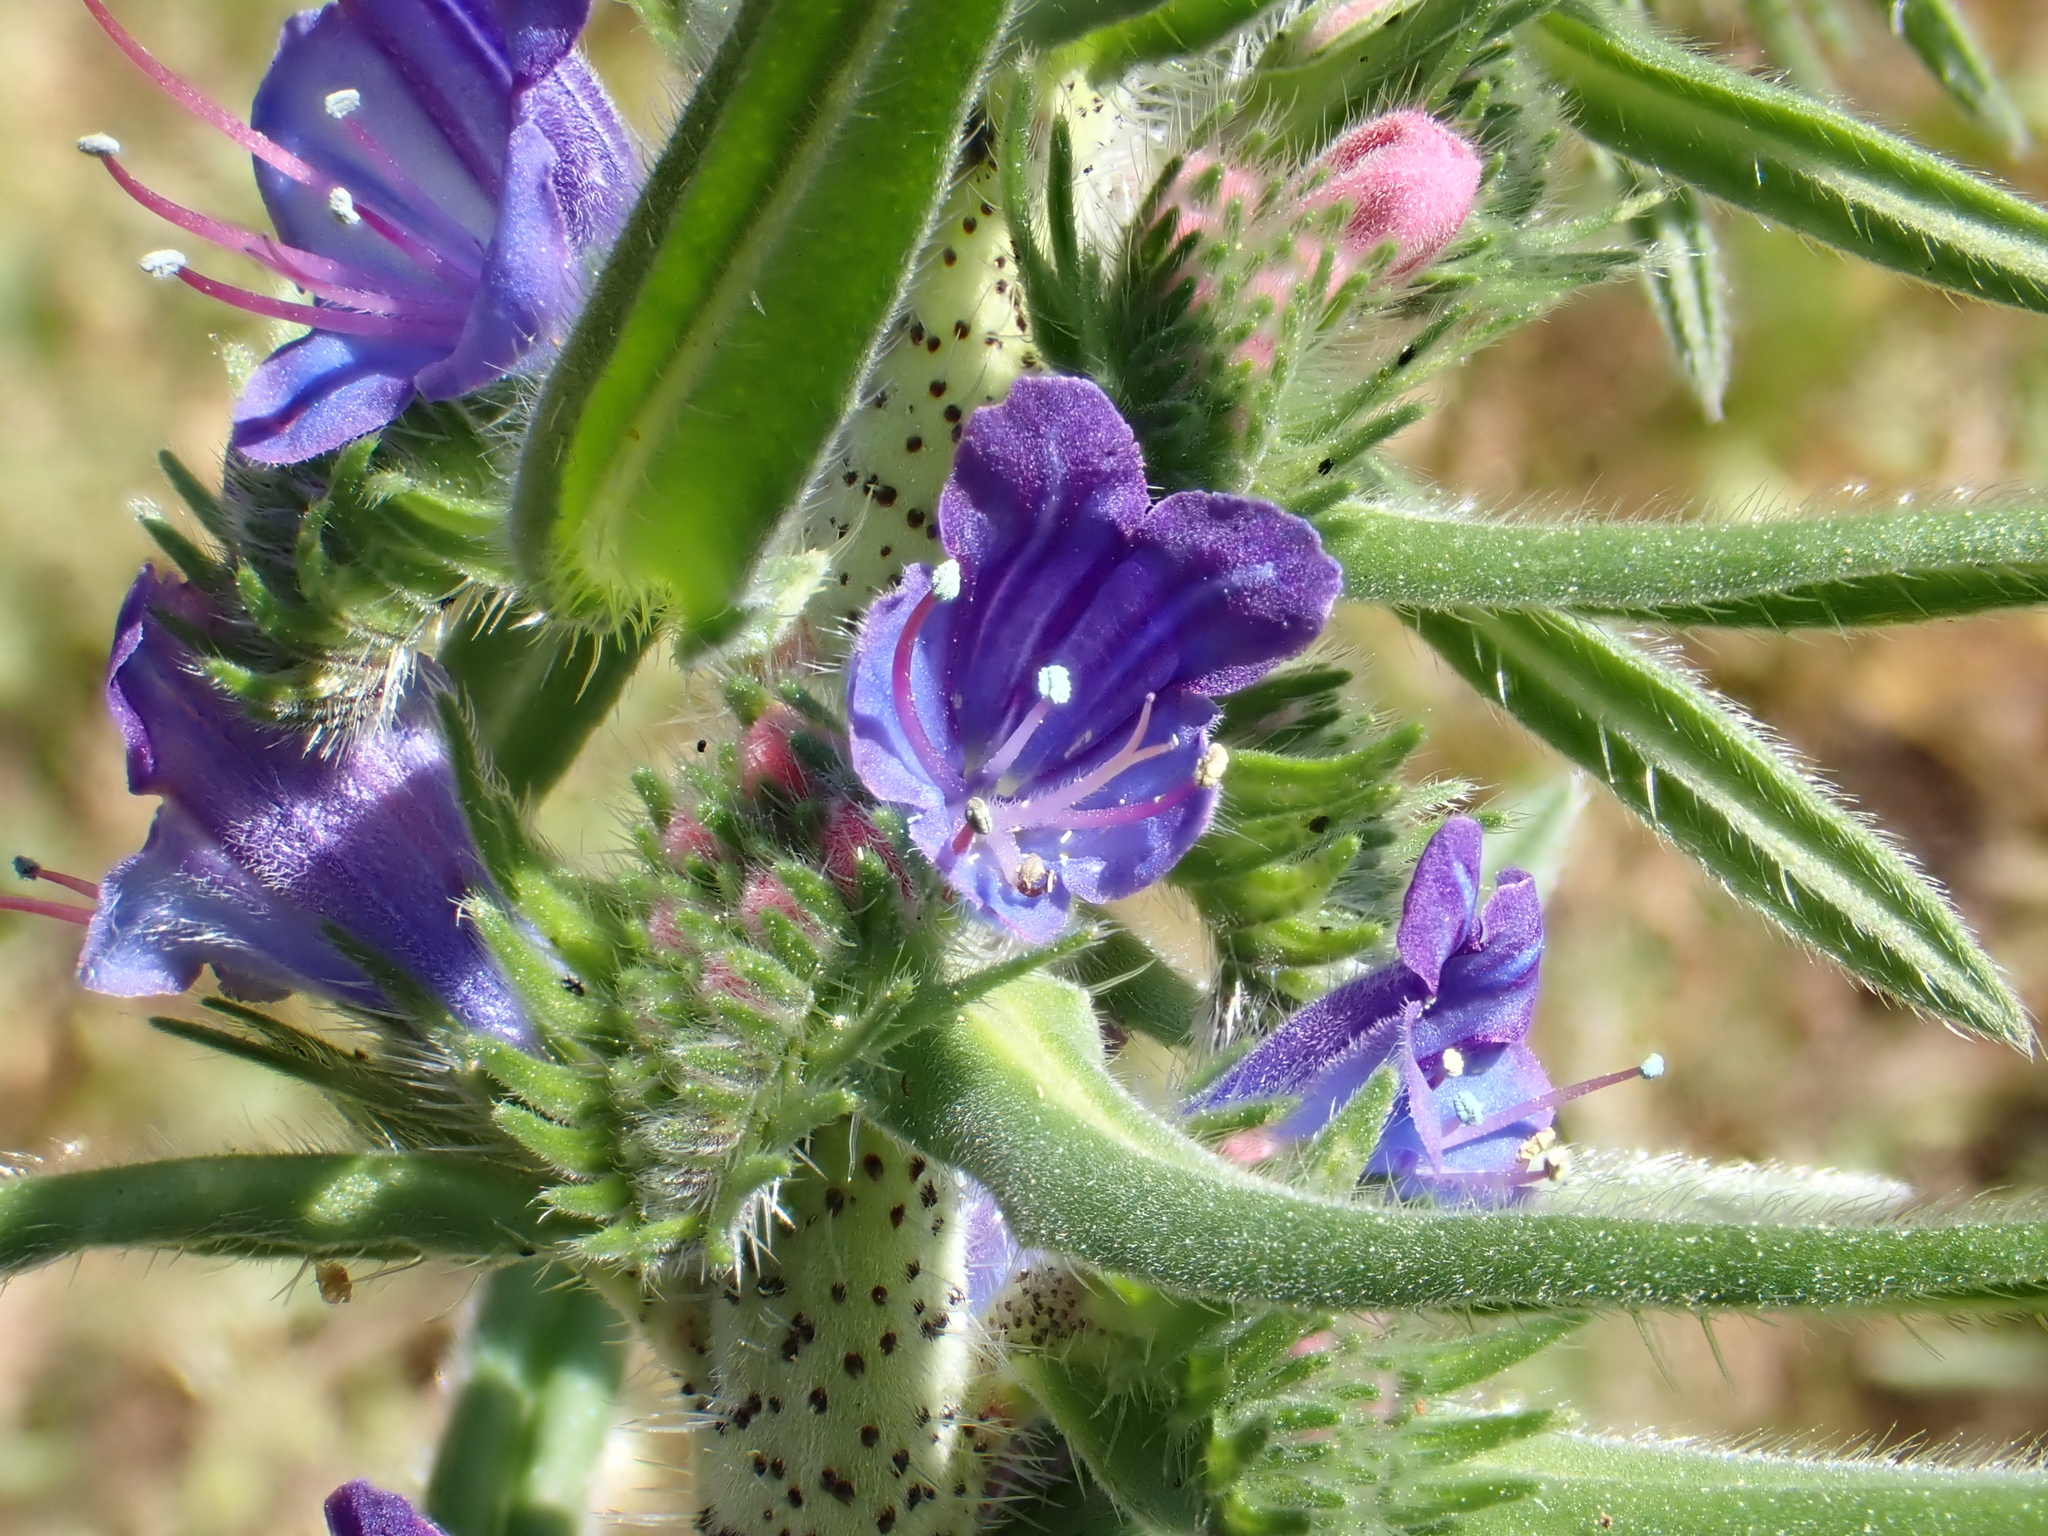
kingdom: Plantae
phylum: Tracheophyta
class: Magnoliopsida
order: Boraginales
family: Boraginaceae
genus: Echium
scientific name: Echium vulgare
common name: Common viper's bugloss
